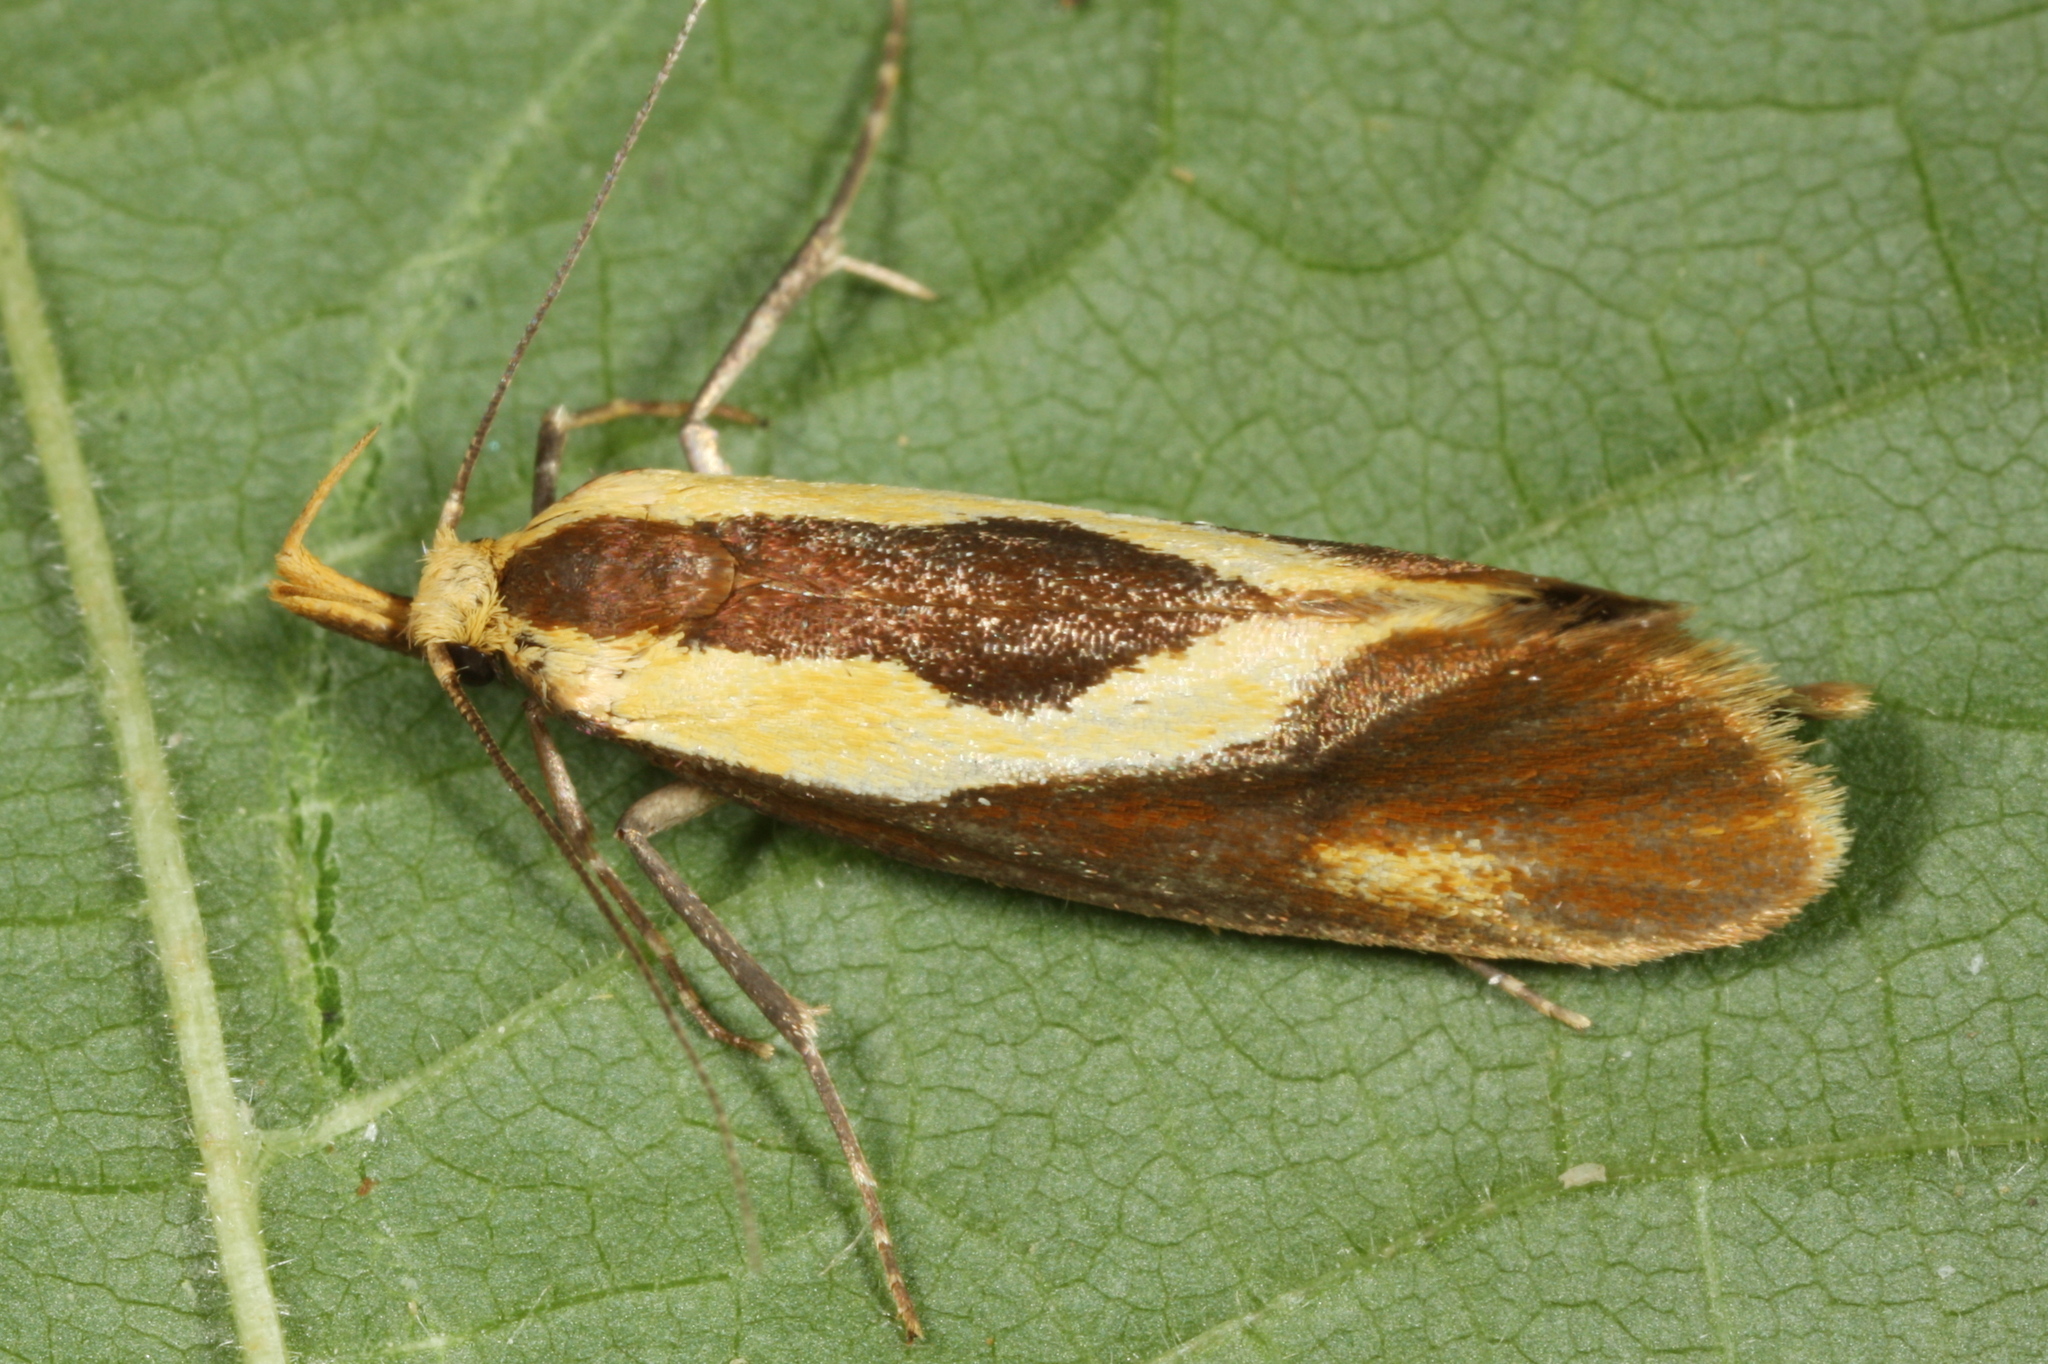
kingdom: Animalia
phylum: Arthropoda
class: Insecta
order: Lepidoptera
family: Oecophoridae
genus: Harpella
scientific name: Harpella forficella
